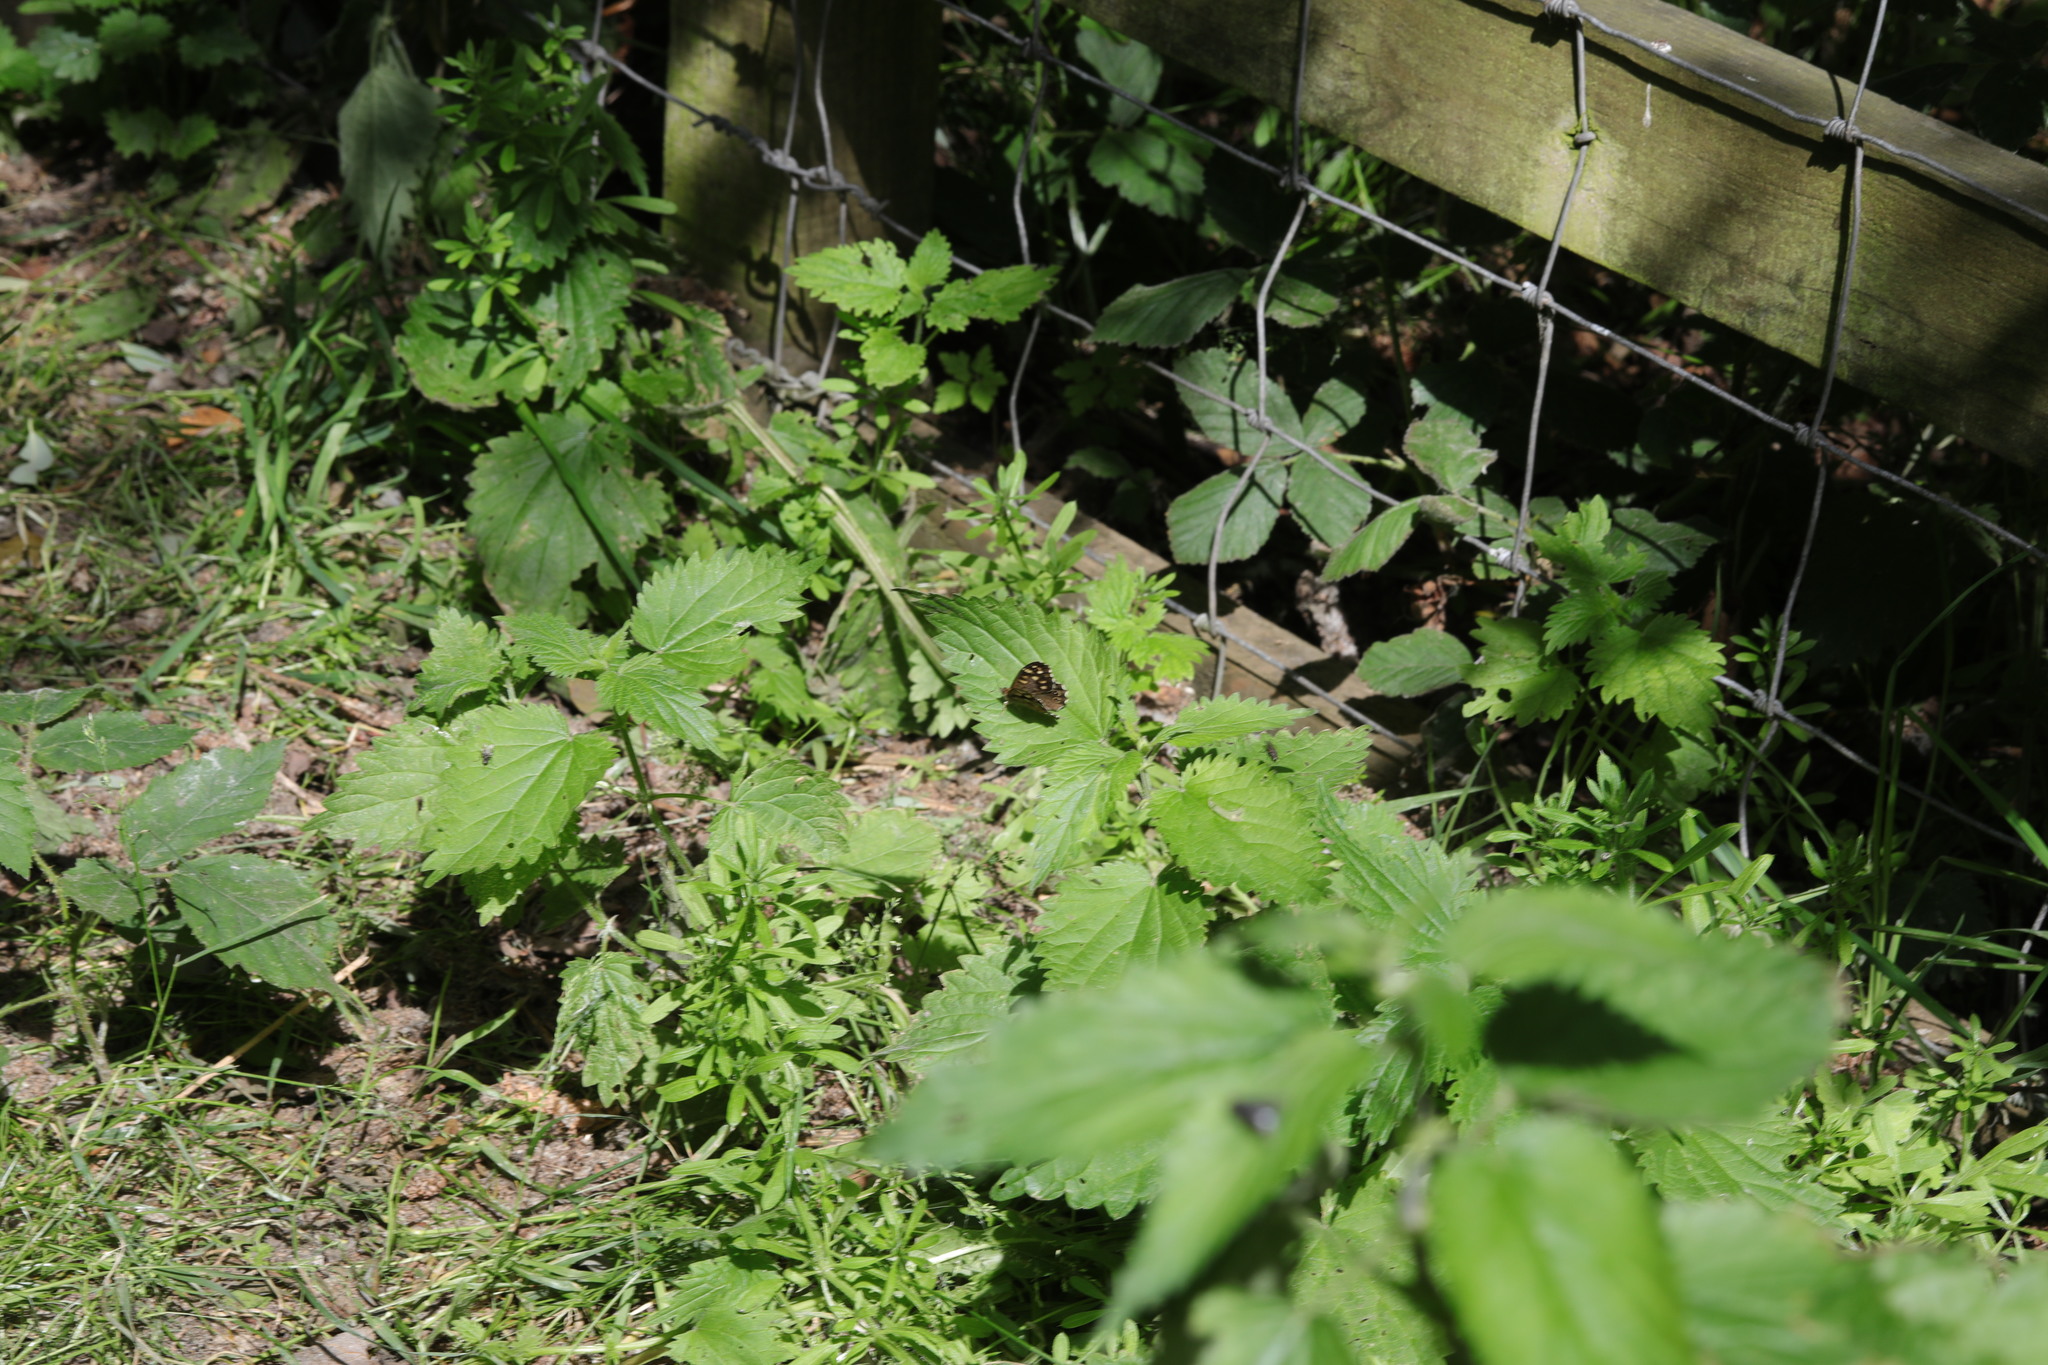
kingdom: Animalia
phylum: Arthropoda
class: Insecta
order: Lepidoptera
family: Nymphalidae
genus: Pararge
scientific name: Pararge aegeria
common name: Speckled wood
